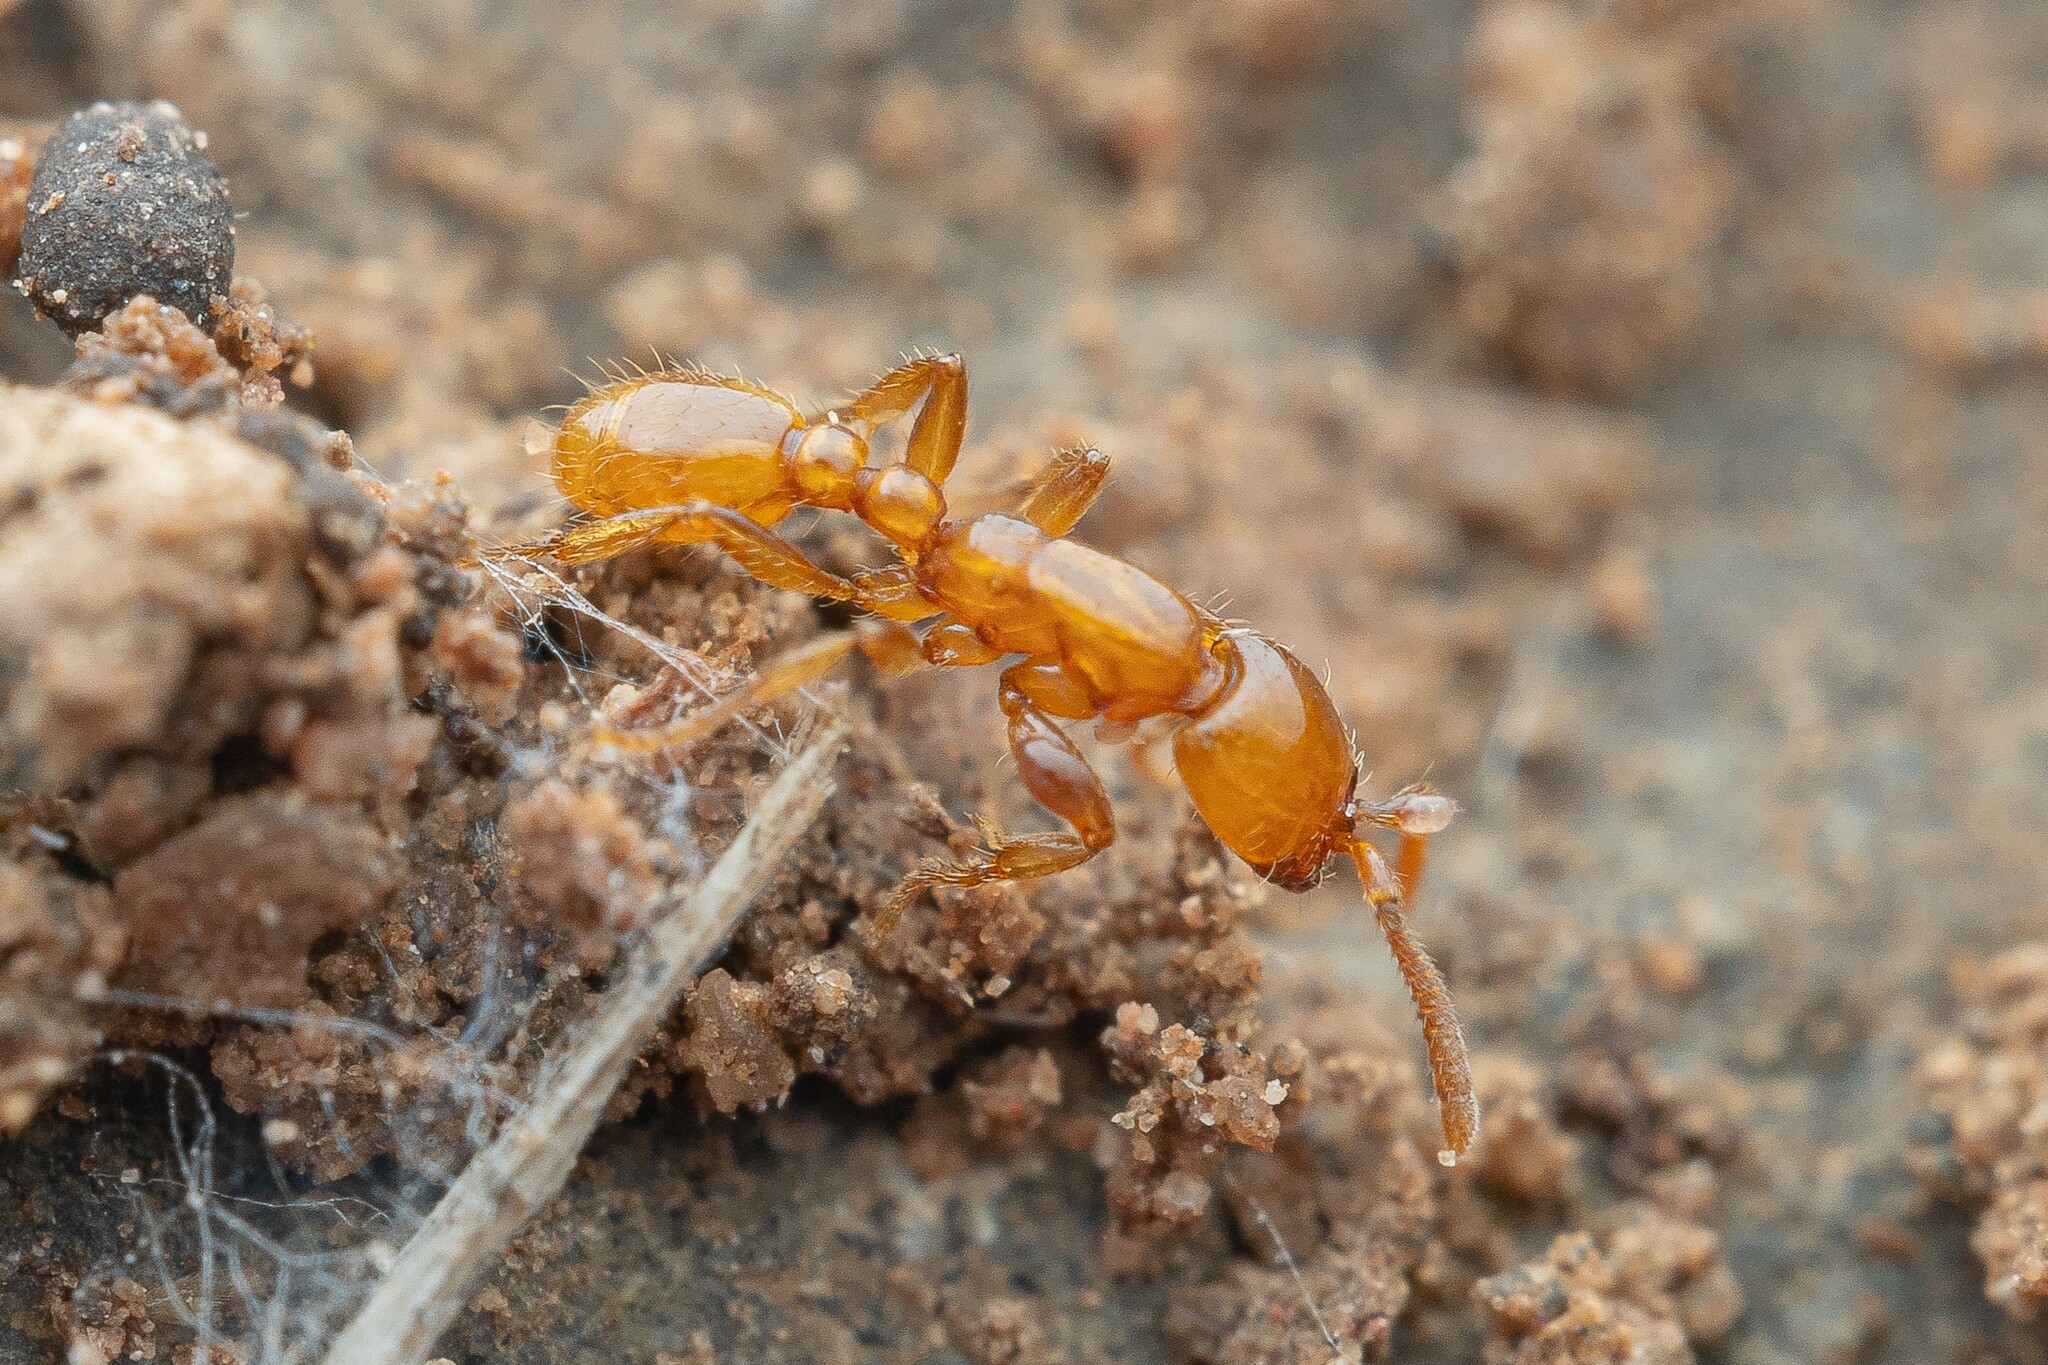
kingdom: Animalia
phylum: Arthropoda
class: Insecta
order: Hymenoptera
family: Formicidae
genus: Neivamyrmex
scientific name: Neivamyrmex
